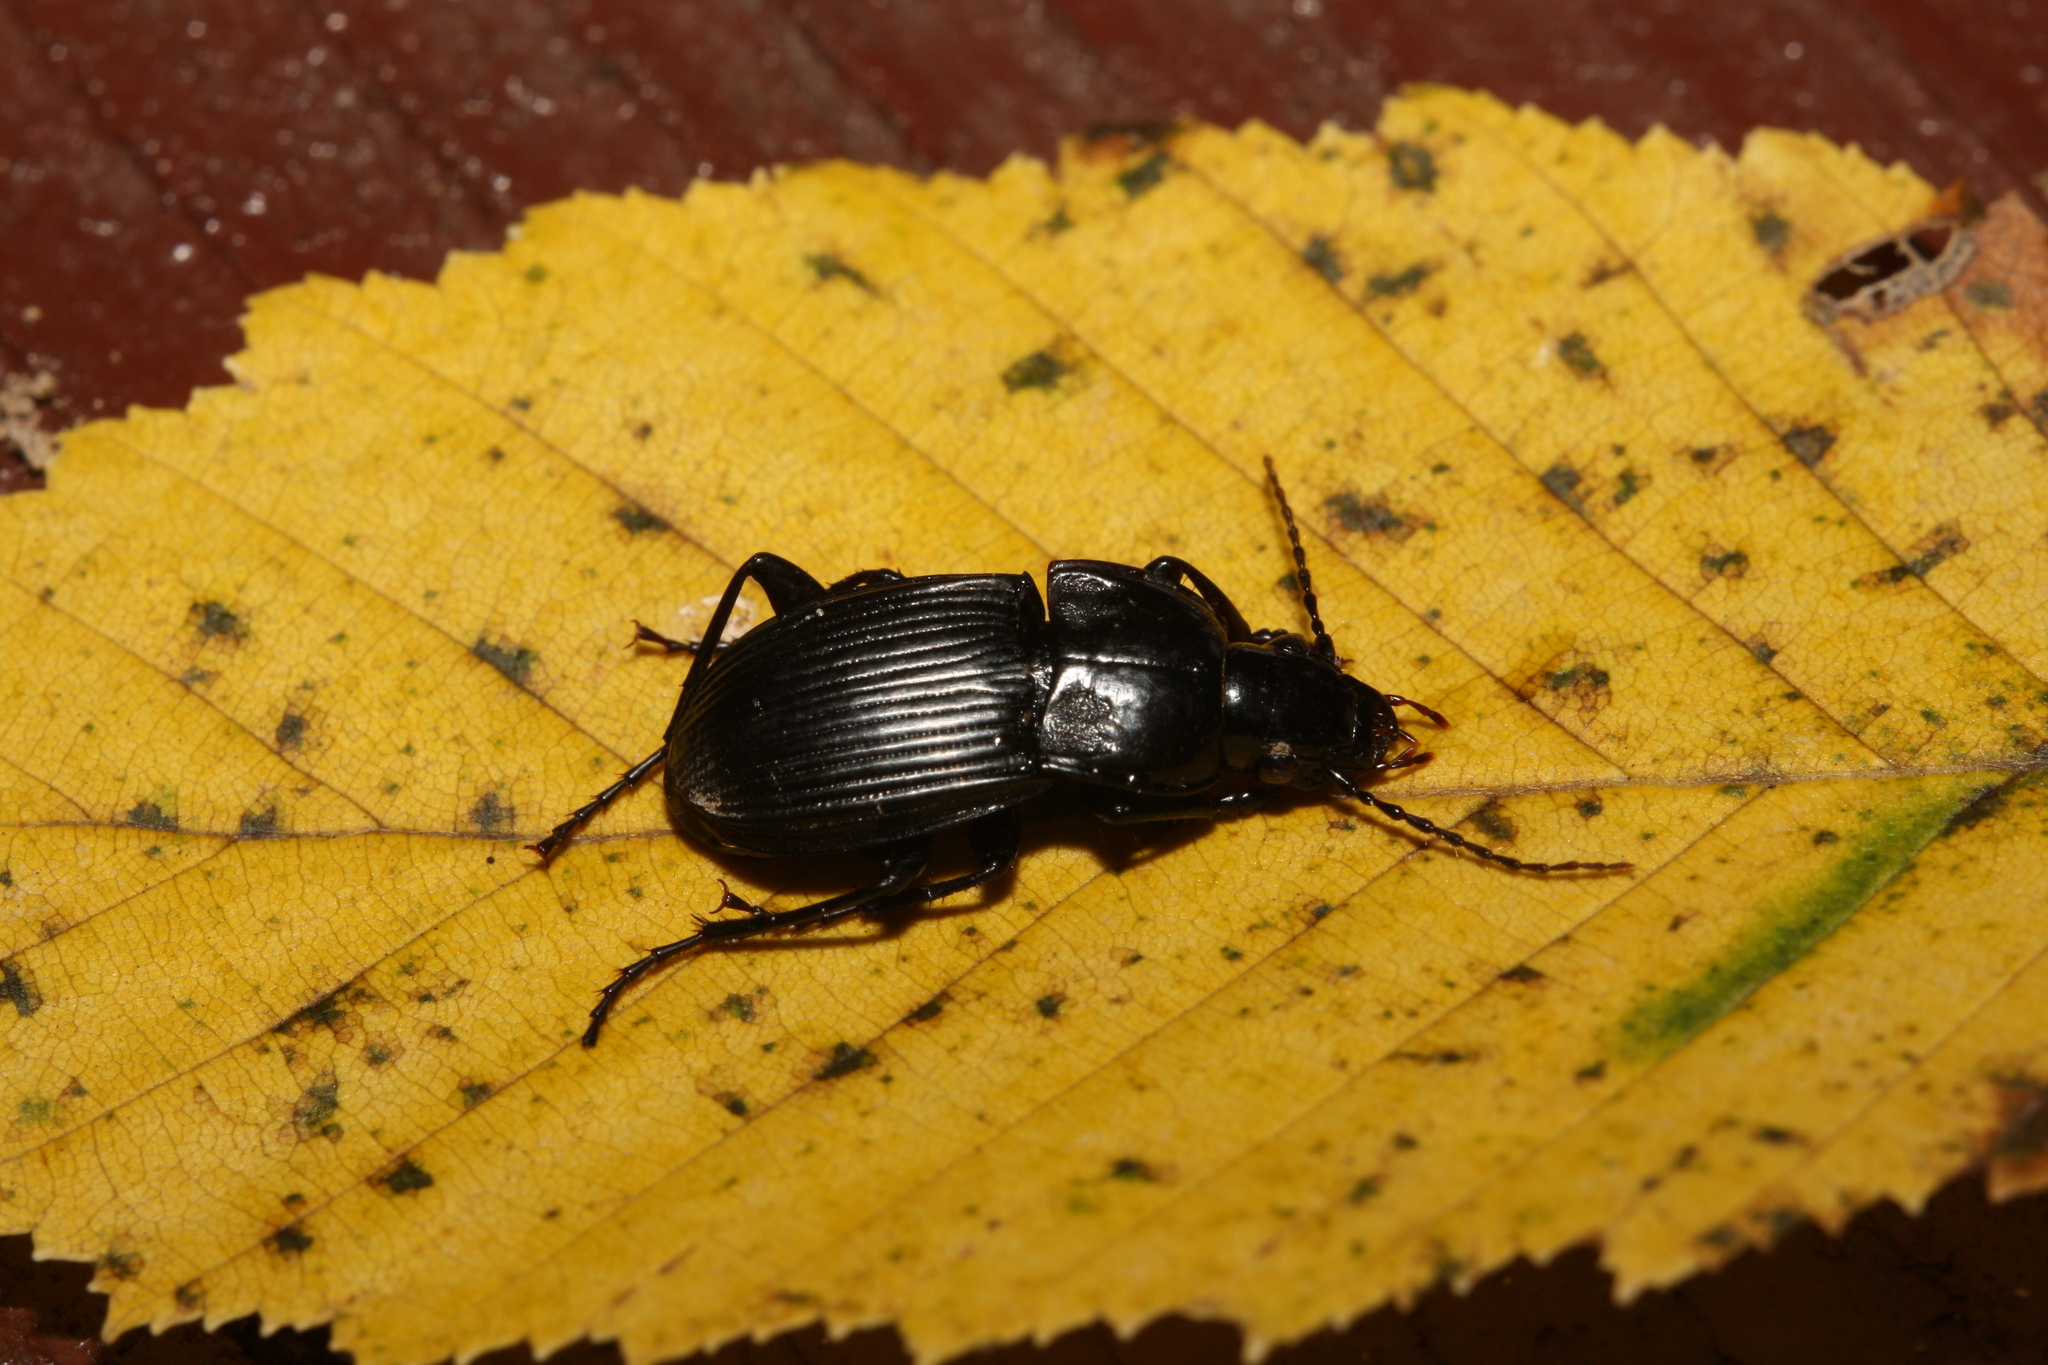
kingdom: Animalia
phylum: Arthropoda
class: Insecta
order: Coleoptera
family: Carabidae
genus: Abax
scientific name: Abax carinatus
